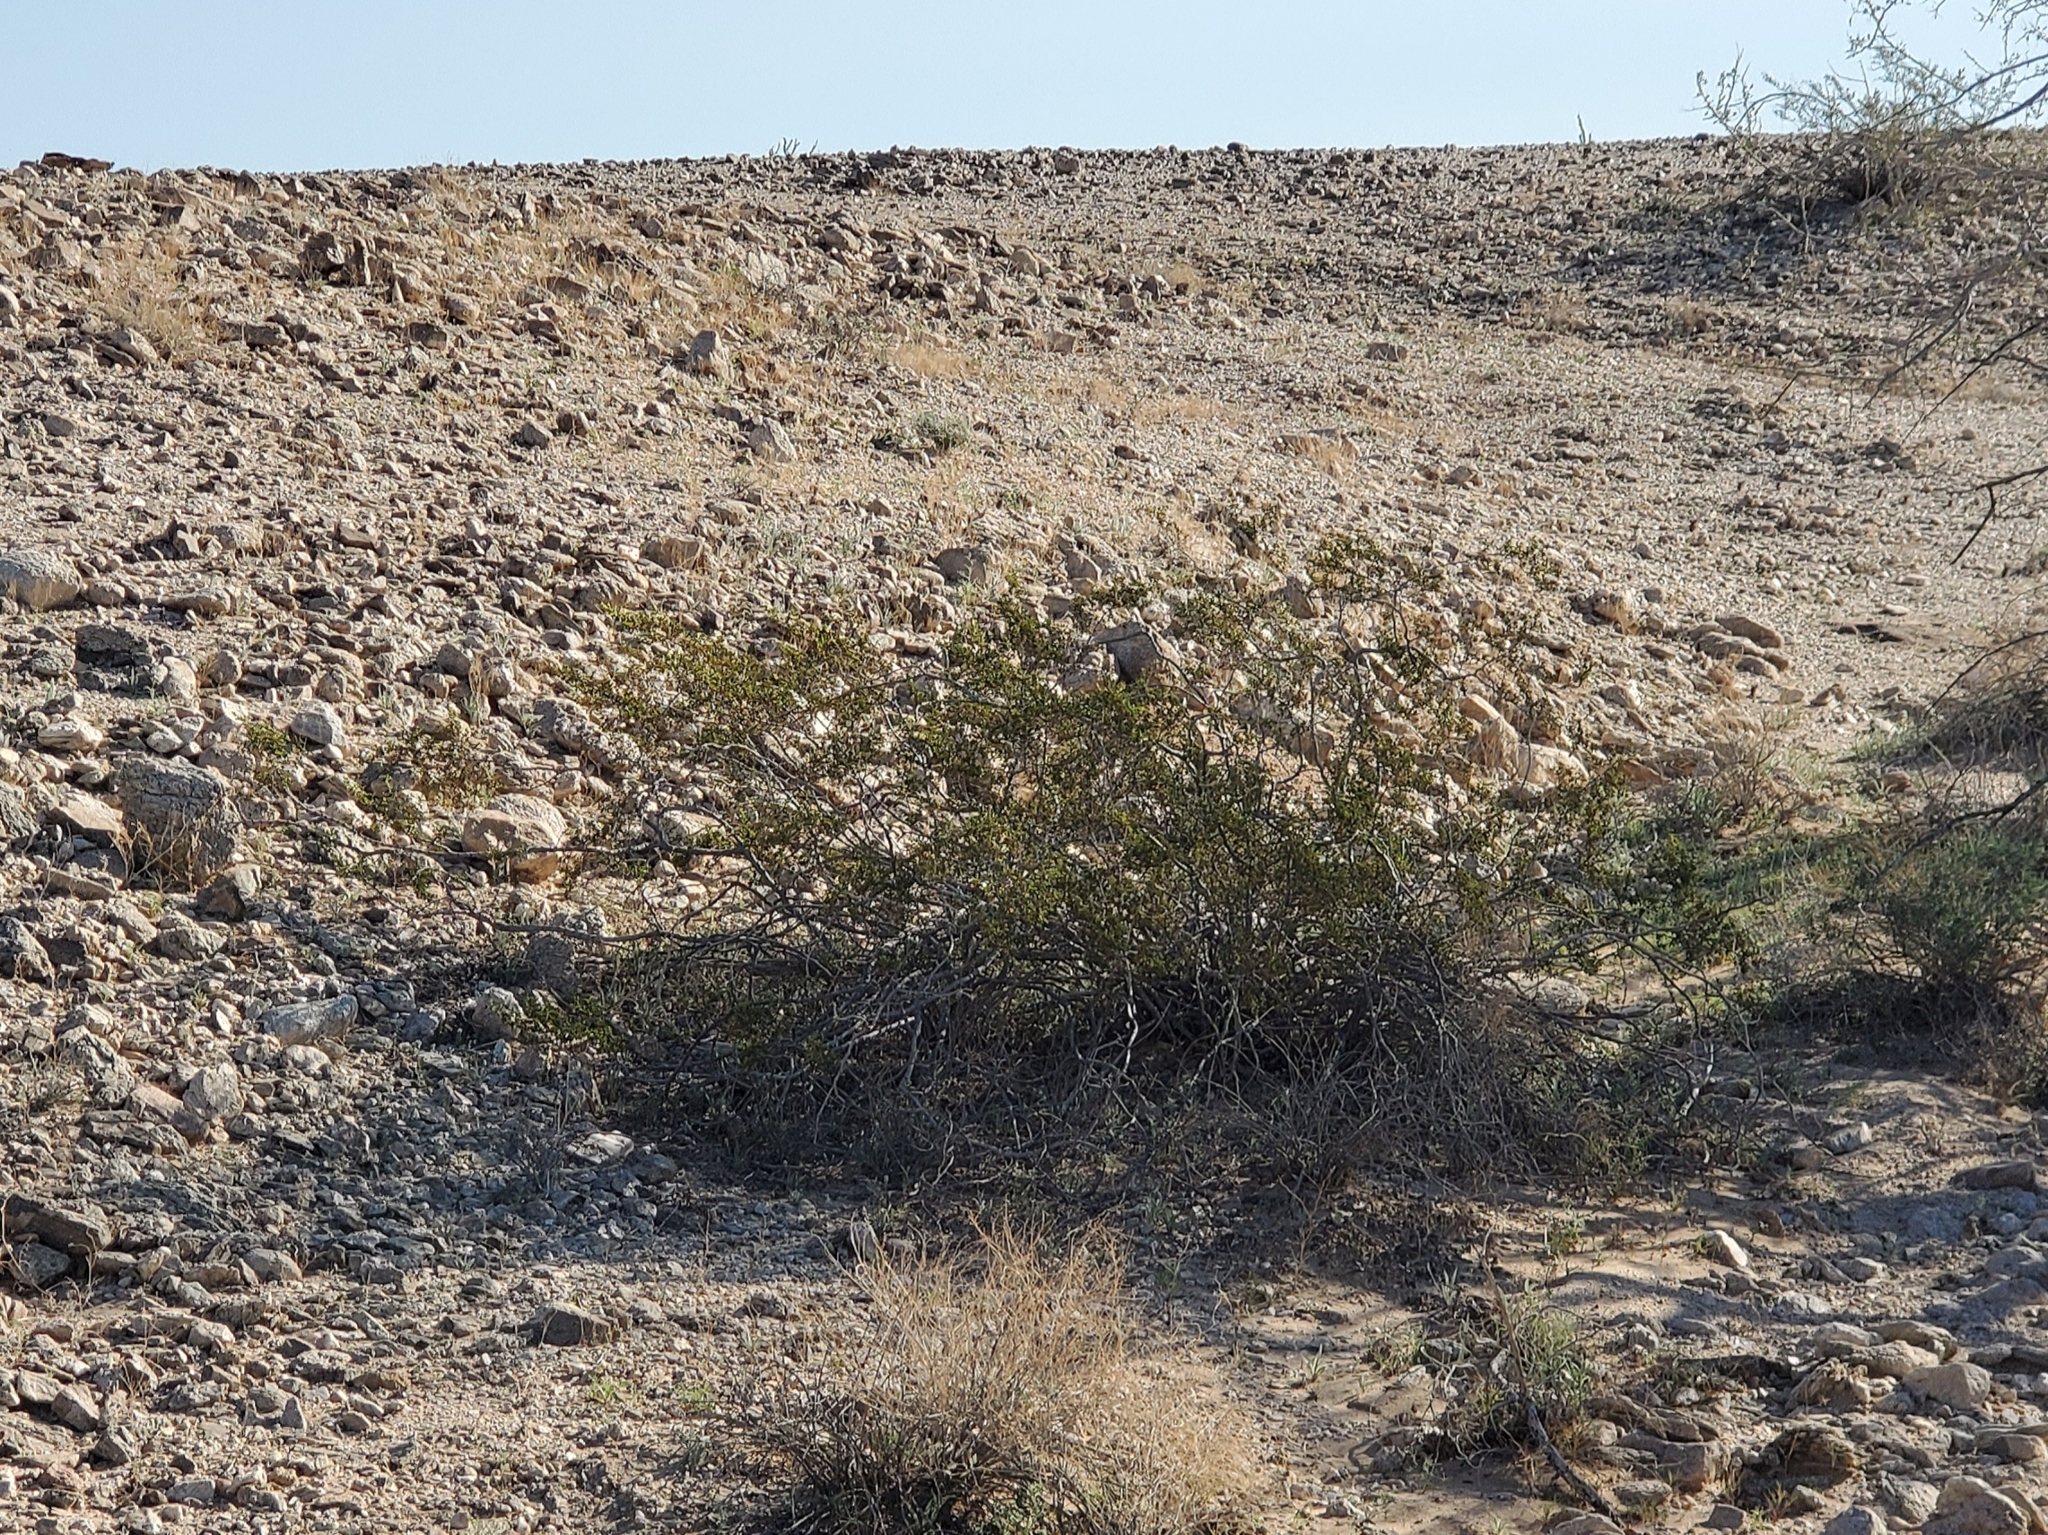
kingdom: Plantae
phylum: Tracheophyta
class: Magnoliopsida
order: Zygophyllales
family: Zygophyllaceae
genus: Larrea
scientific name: Larrea tridentata
